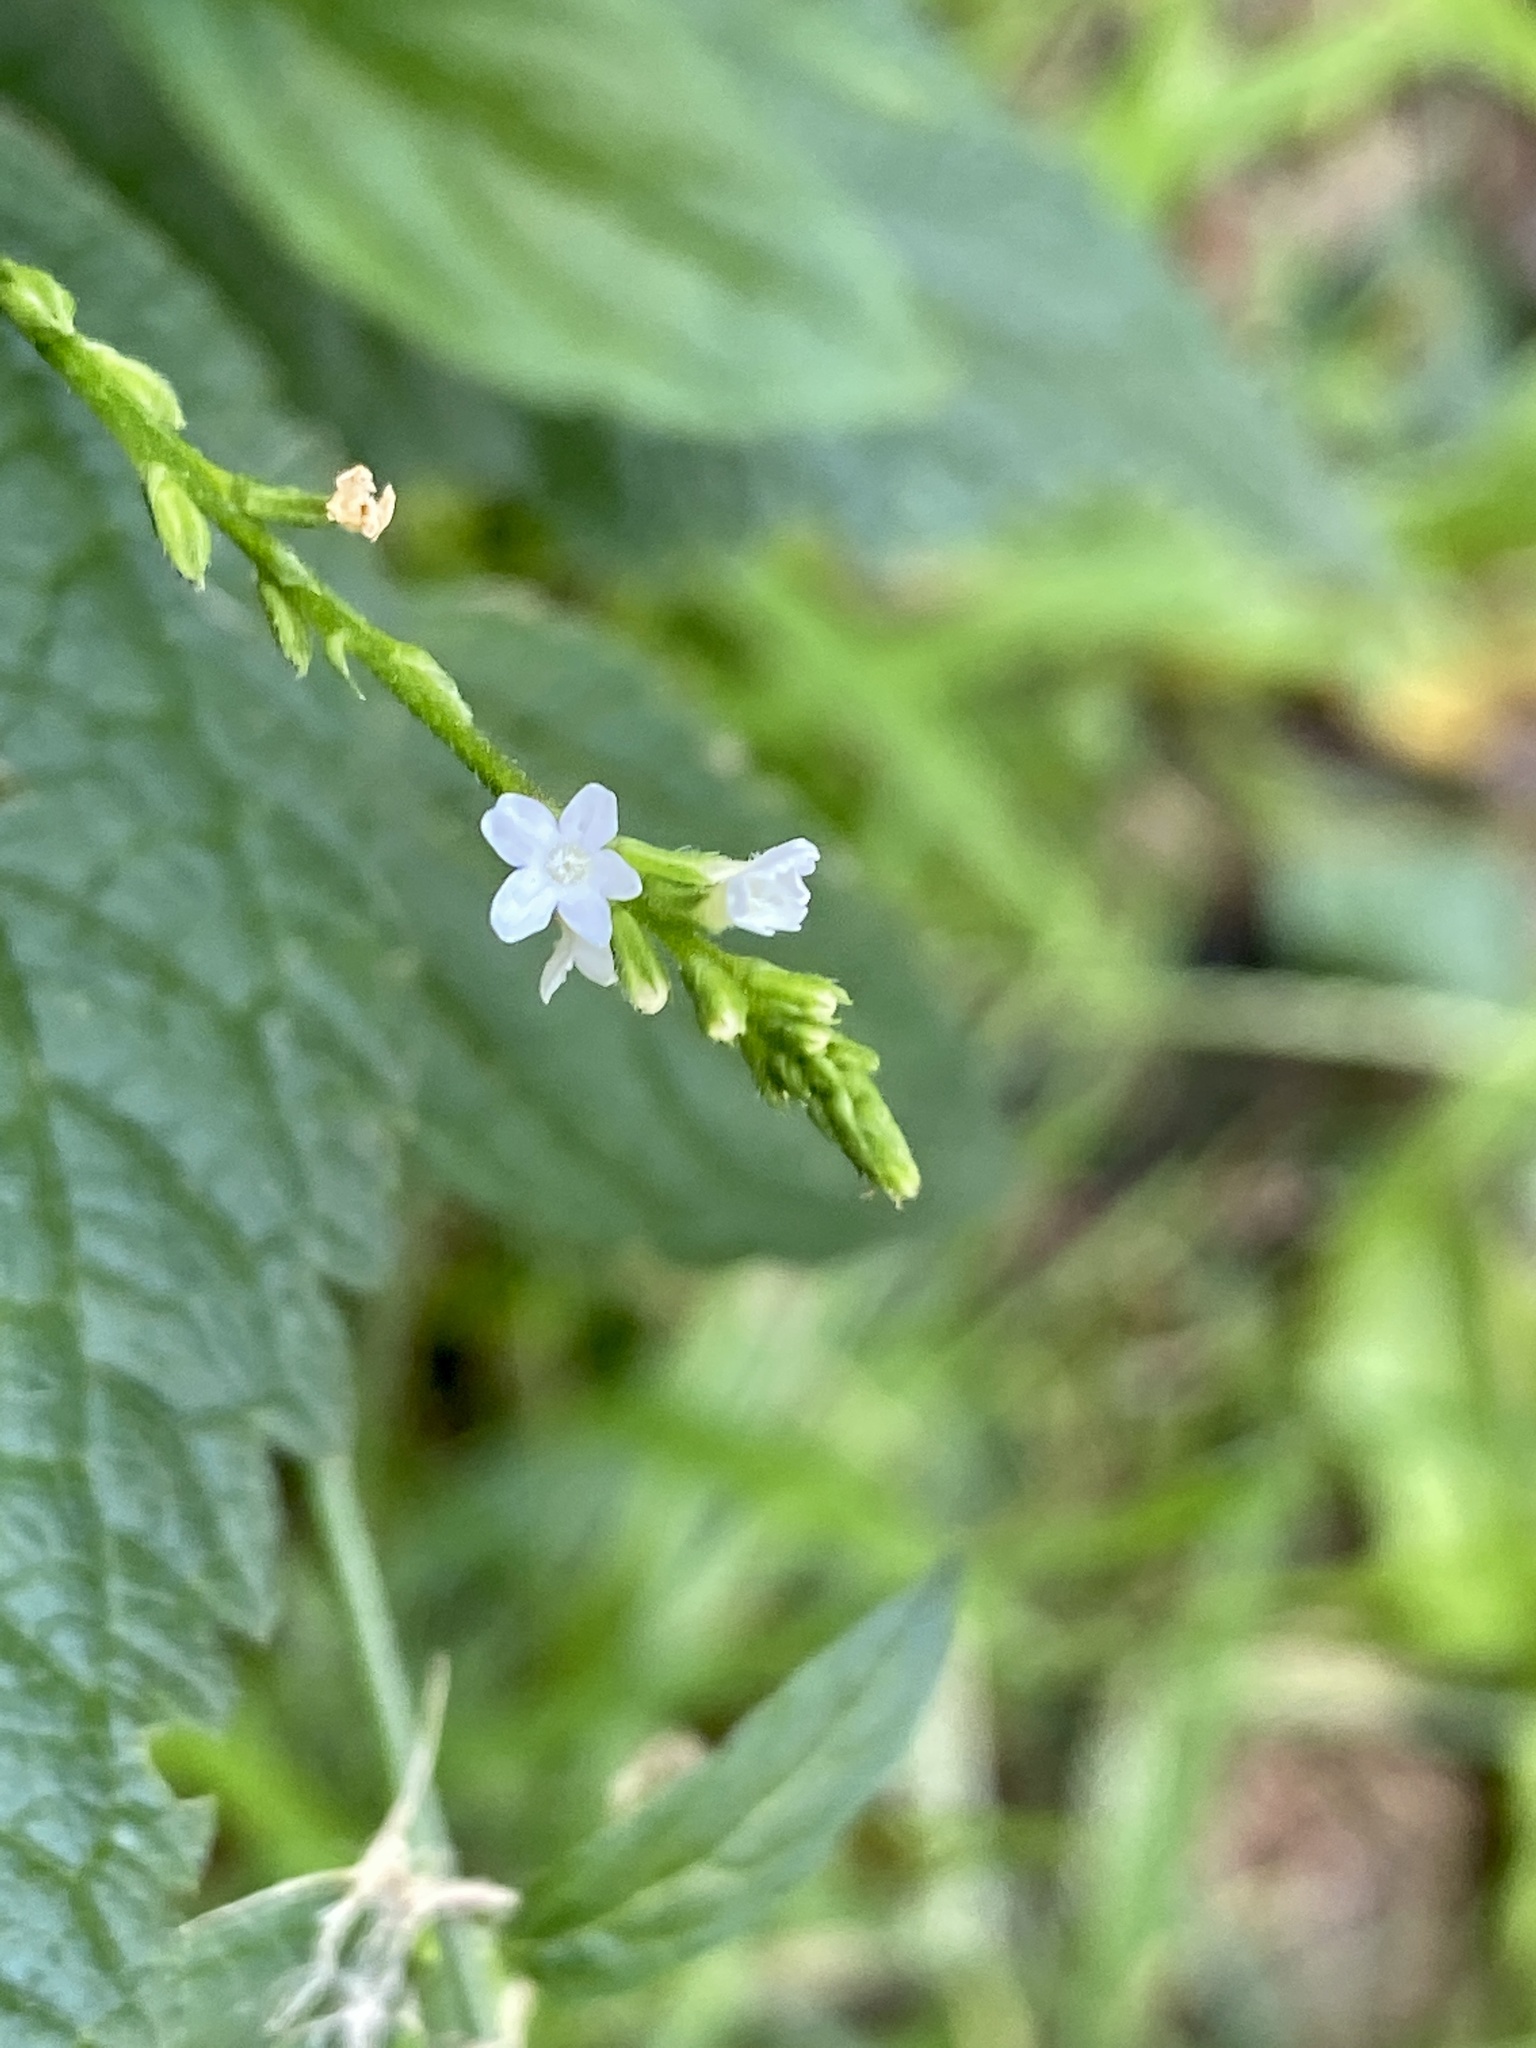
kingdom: Plantae
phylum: Tracheophyta
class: Magnoliopsida
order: Lamiales
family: Verbenaceae
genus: Verbena
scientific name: Verbena urticifolia
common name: Nettle-leaved vervain
